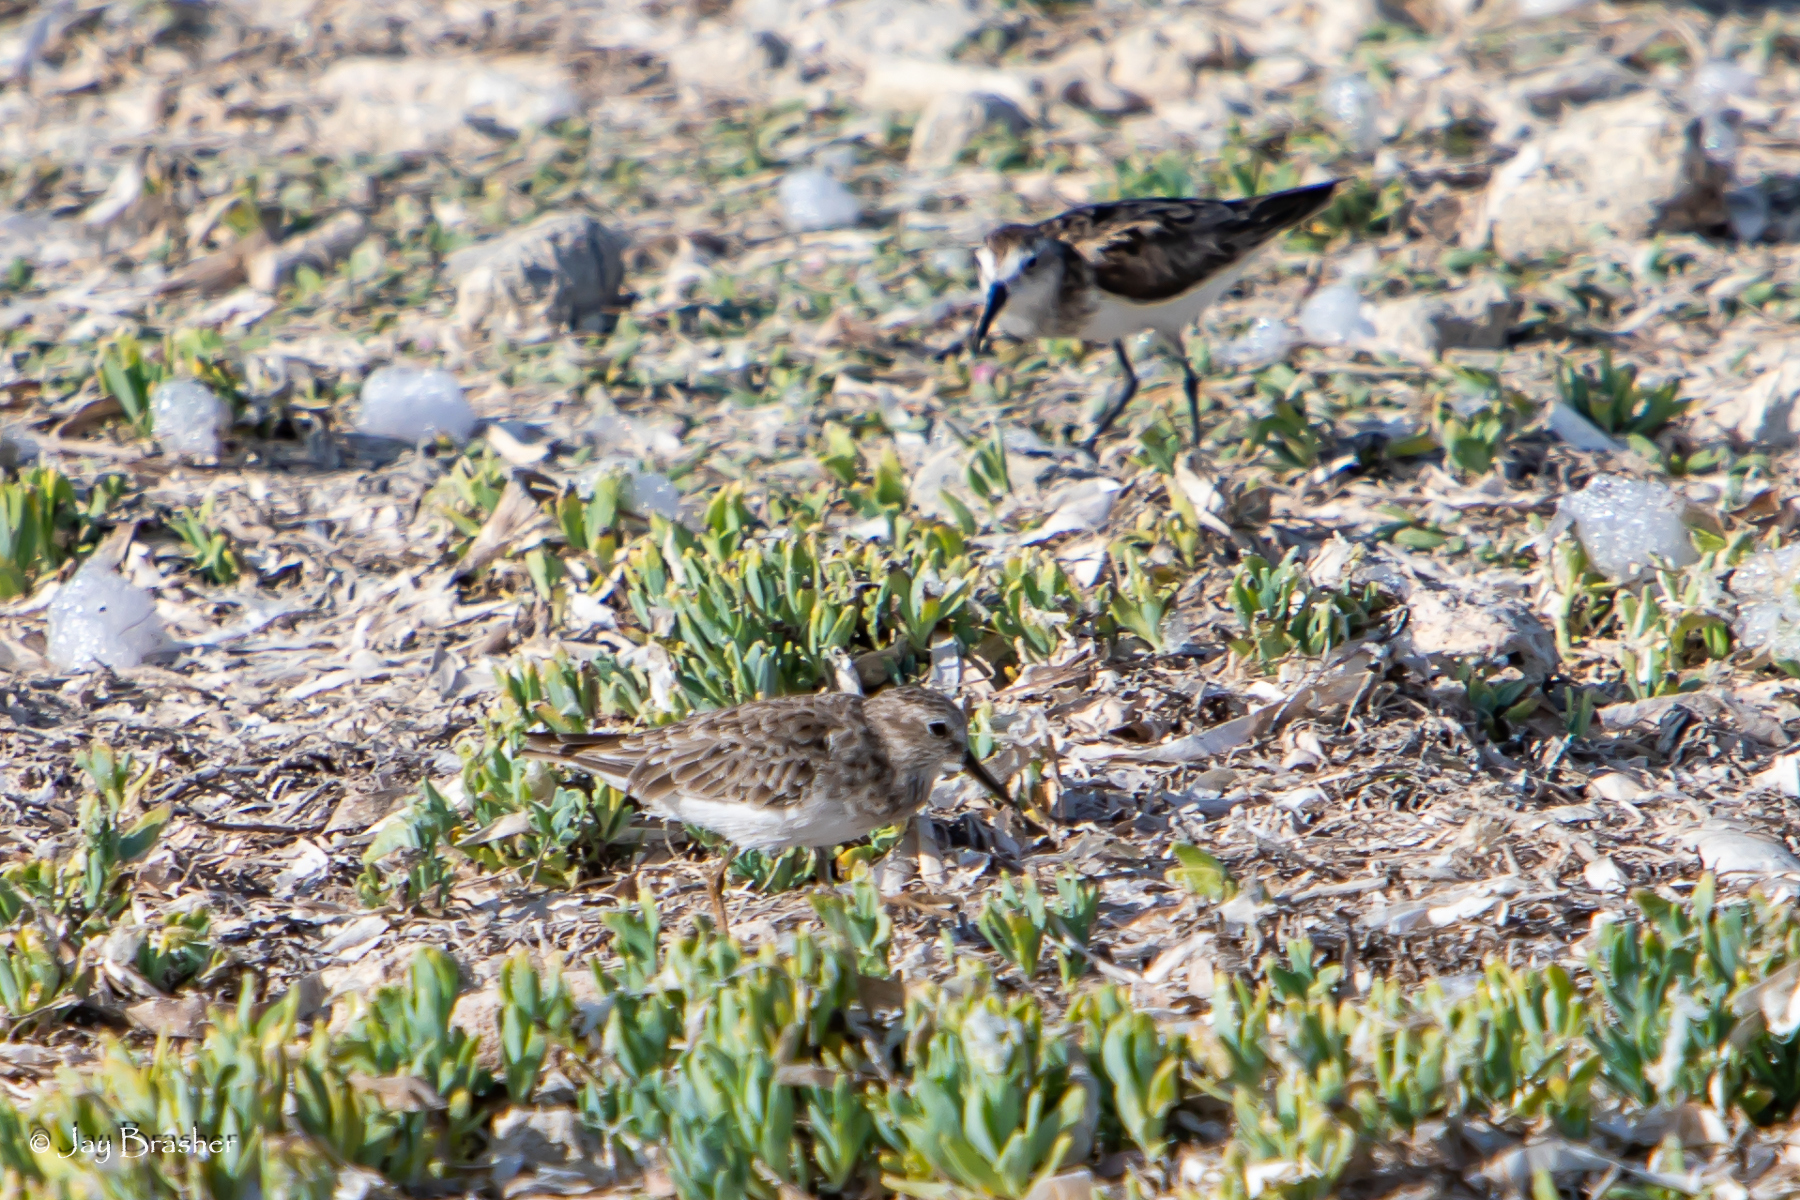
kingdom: Animalia
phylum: Chordata
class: Aves
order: Charadriiformes
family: Scolopacidae
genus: Calidris
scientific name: Calidris minutilla
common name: Least sandpiper
